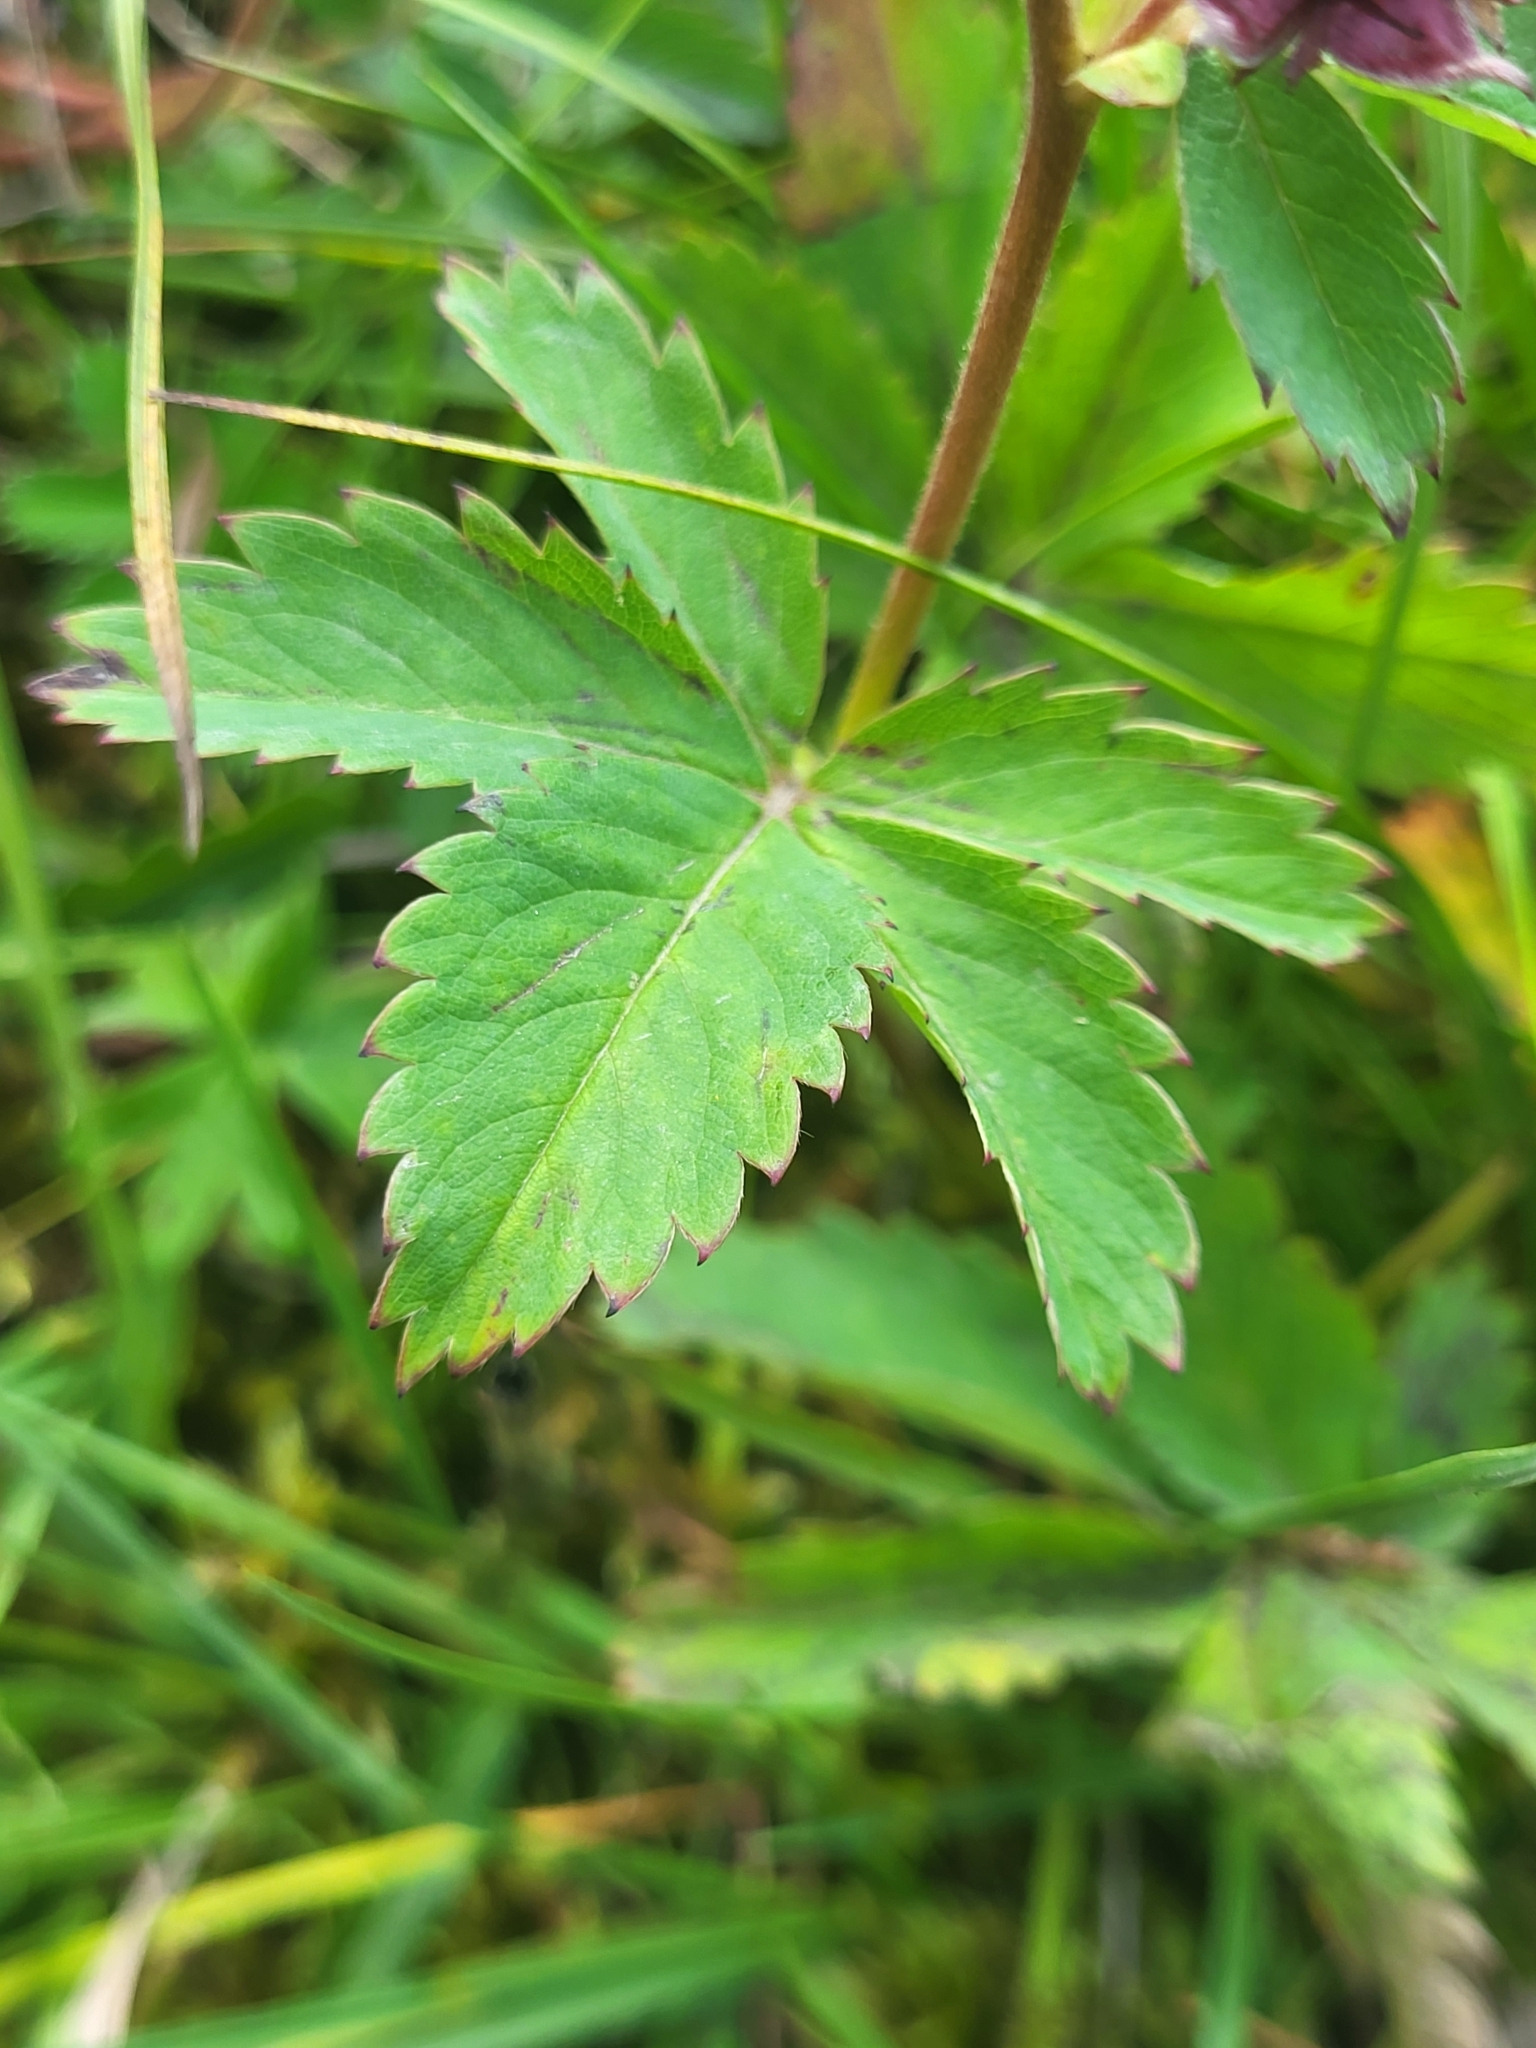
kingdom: Plantae
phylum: Tracheophyta
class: Magnoliopsida
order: Rosales
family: Rosaceae
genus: Comarum
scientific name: Comarum palustre
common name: Marsh cinquefoil
